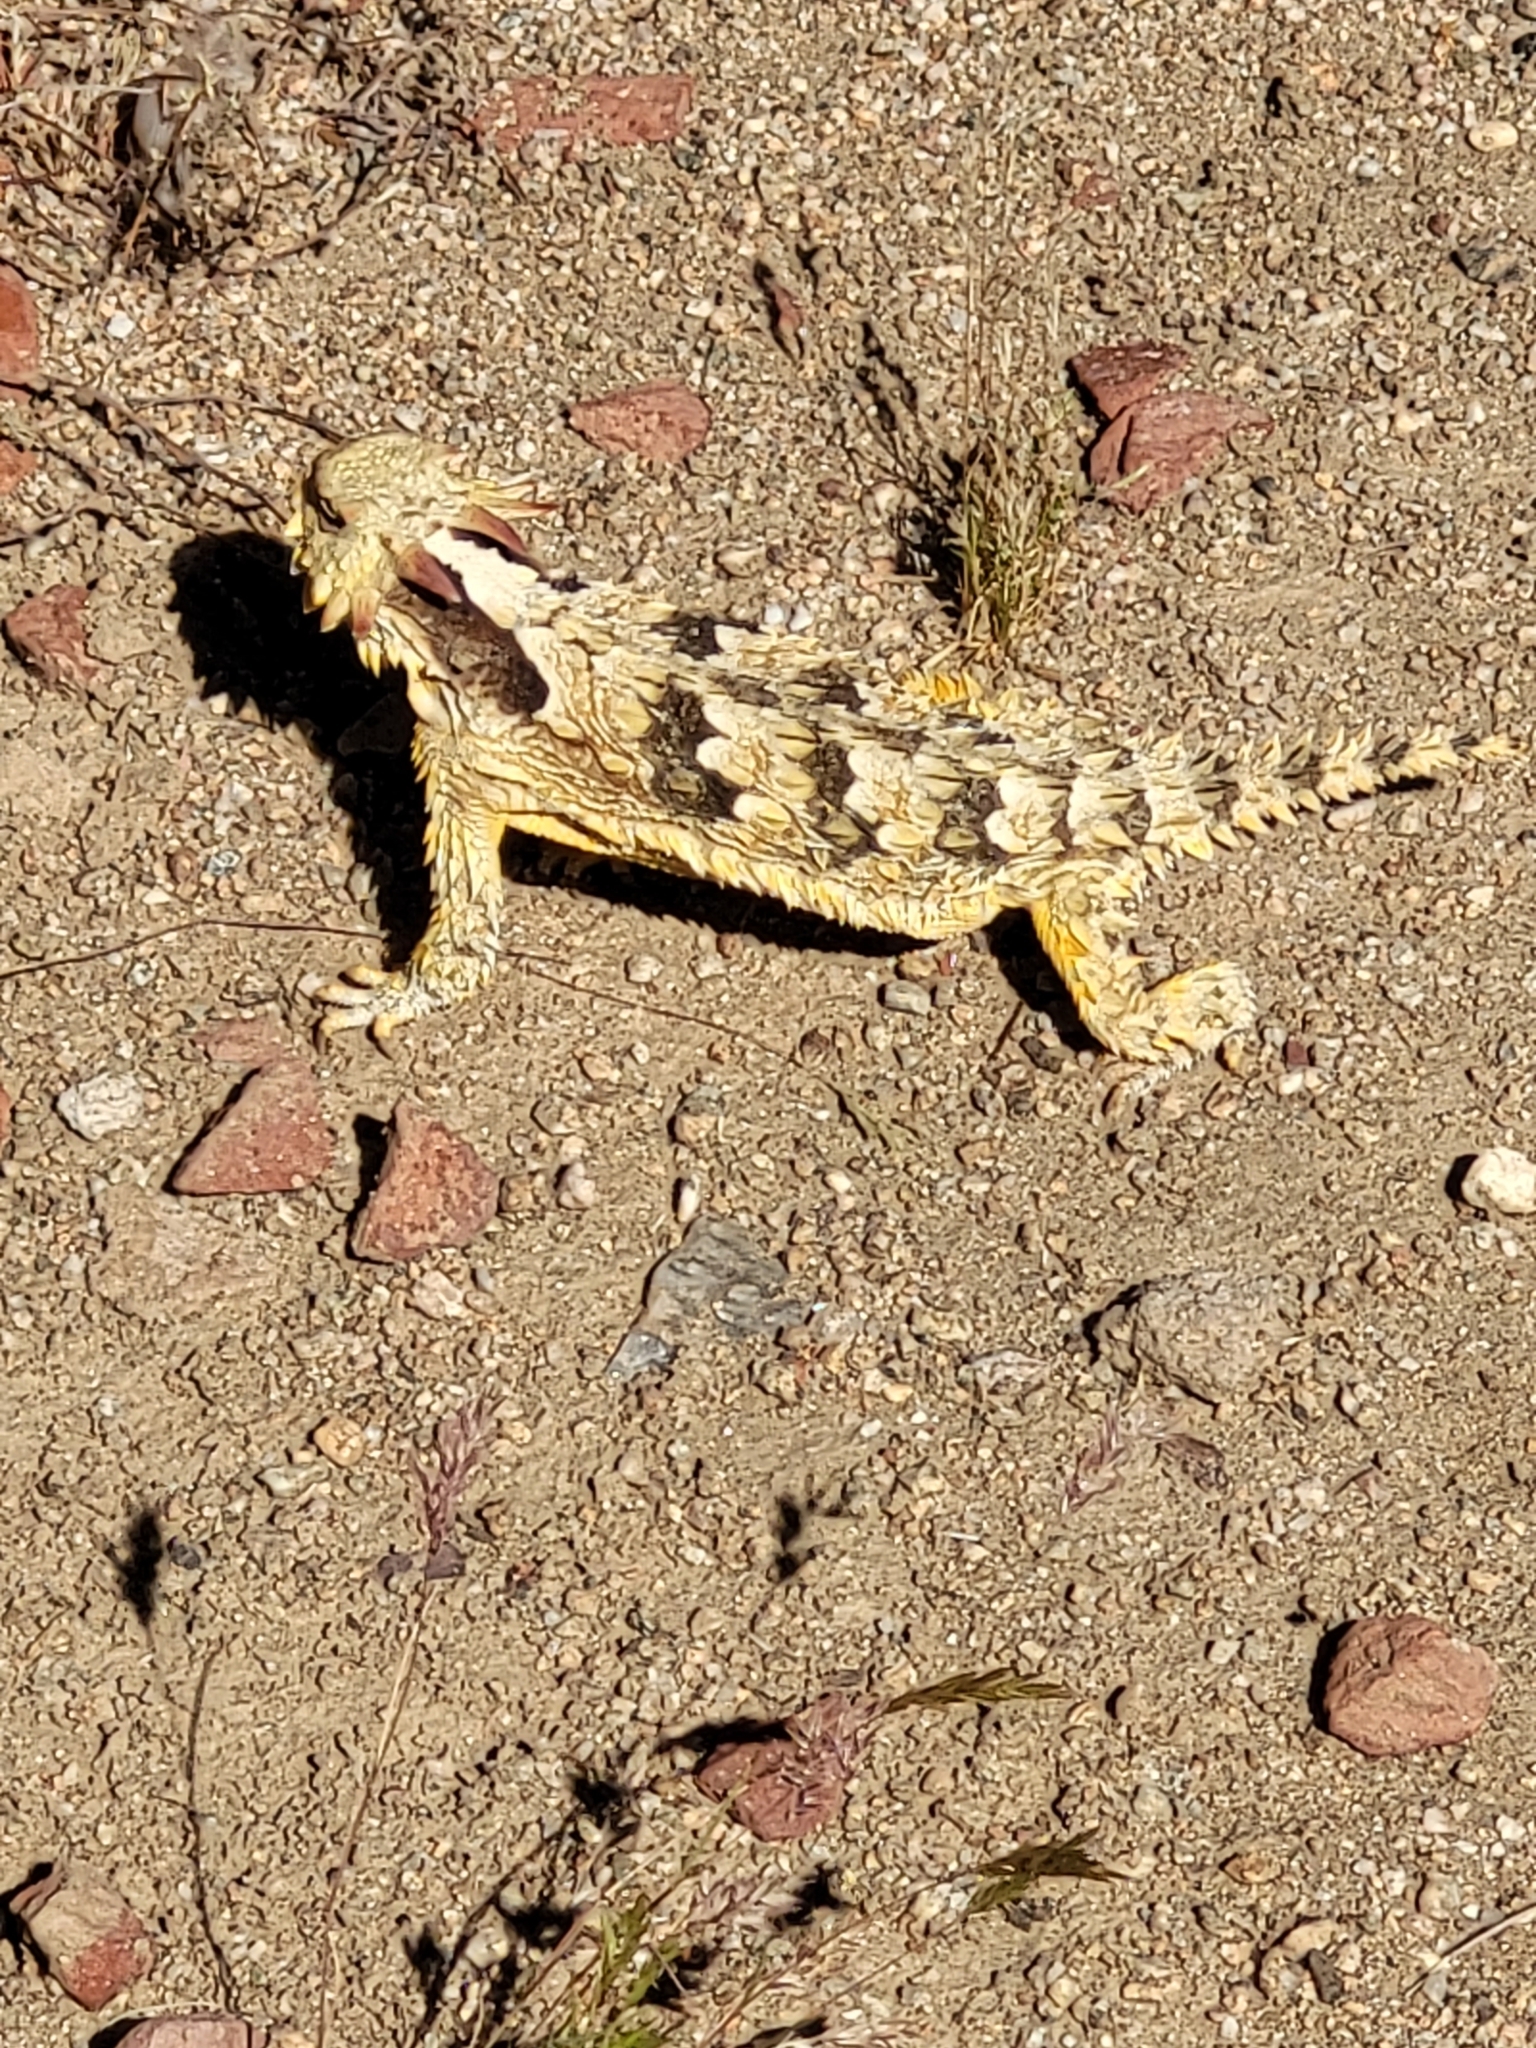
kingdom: Animalia
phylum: Chordata
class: Squamata
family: Phrynosomatidae
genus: Phrynosoma
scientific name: Phrynosoma blainvillii
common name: San diego horned lizard
